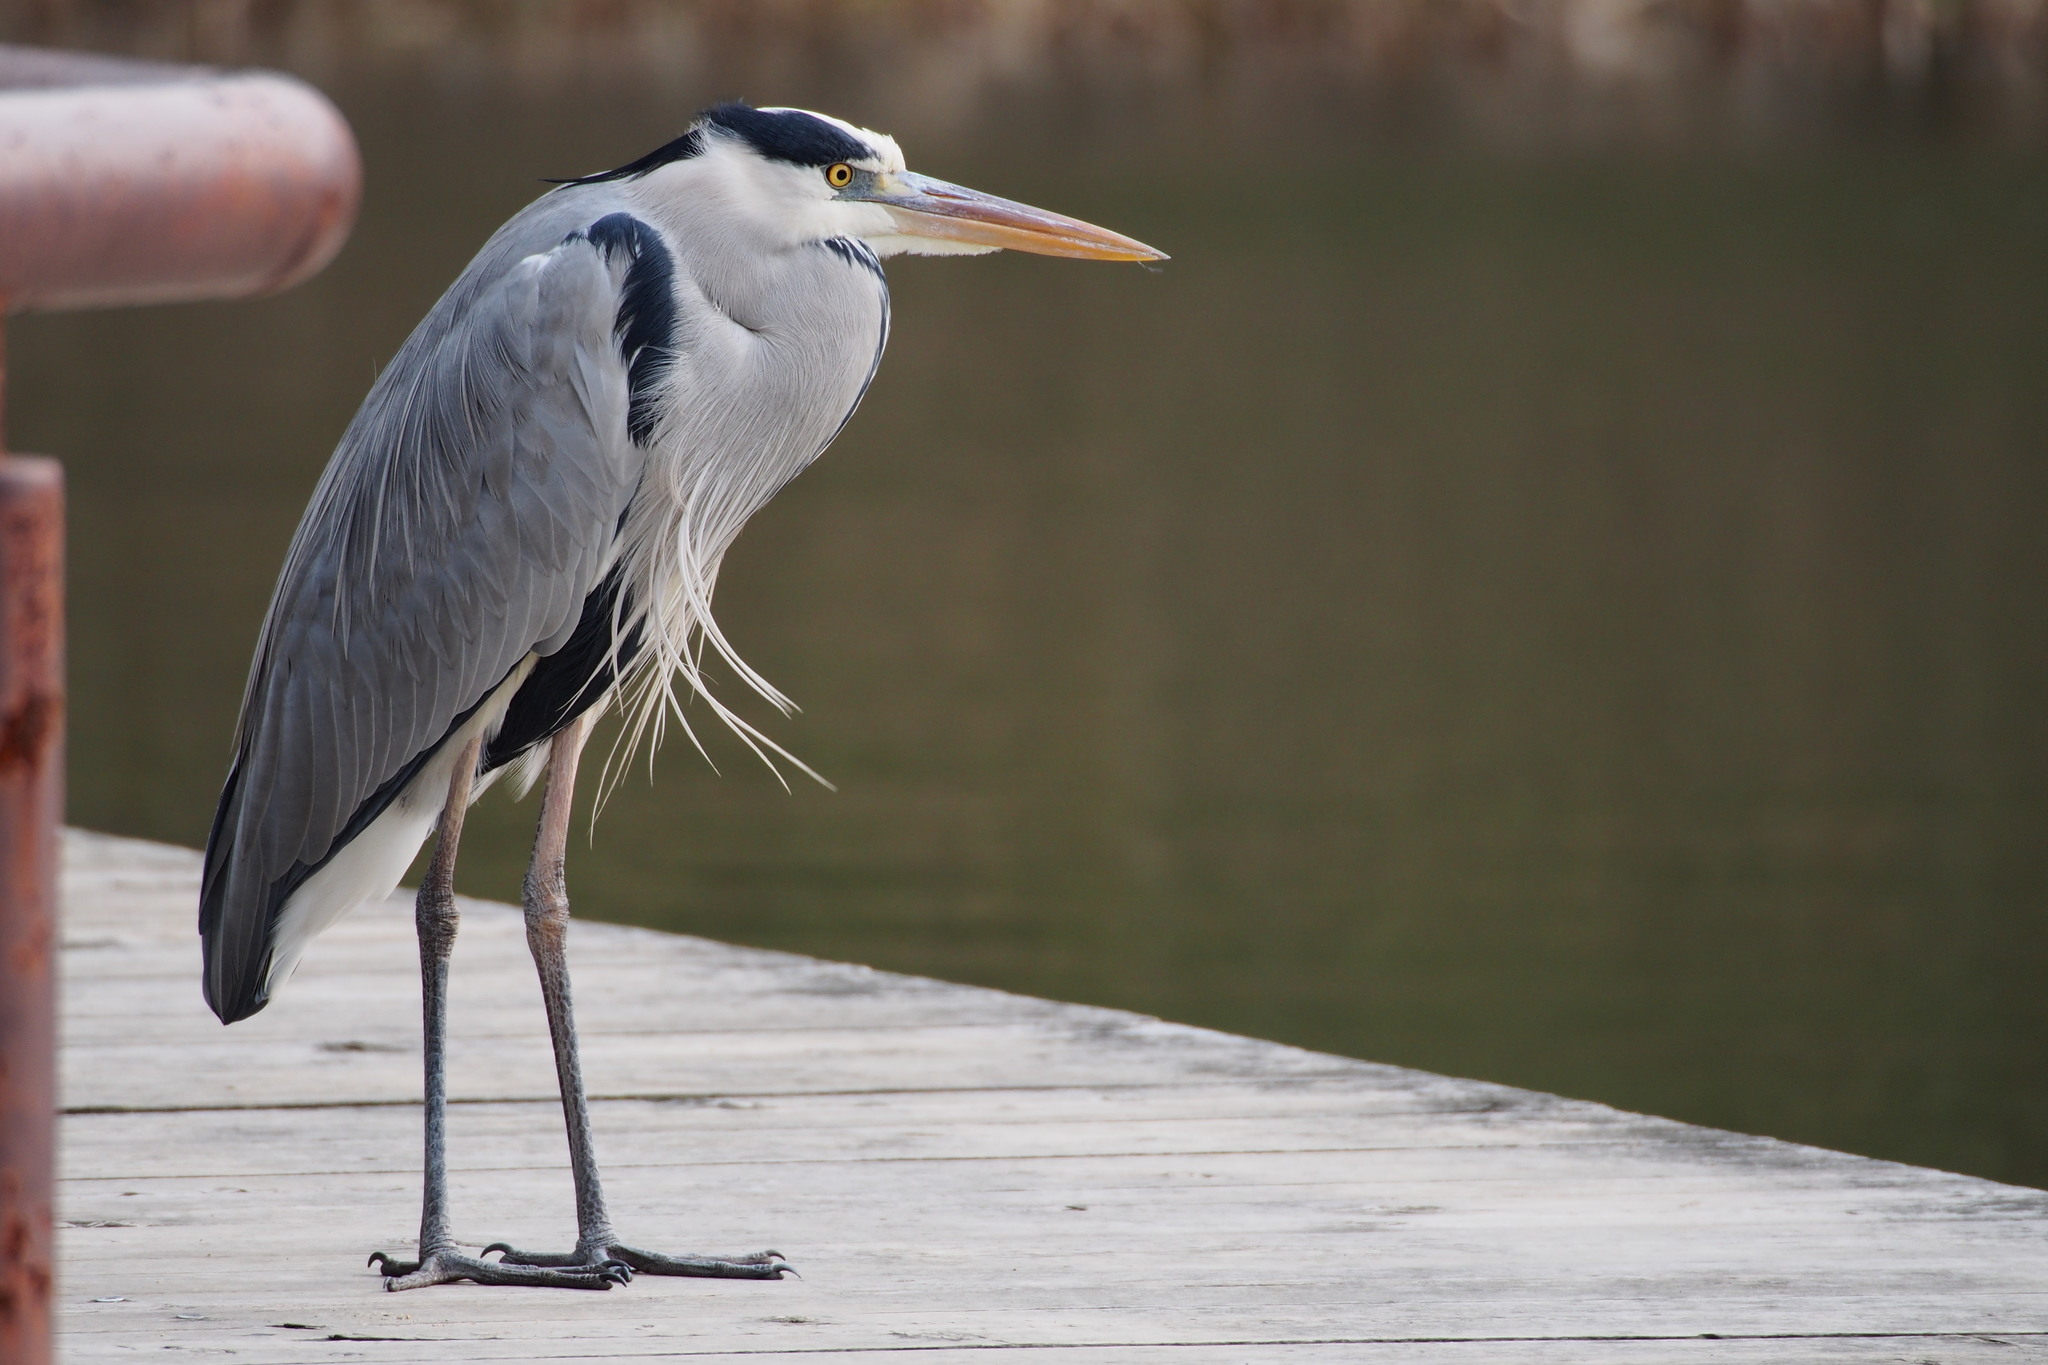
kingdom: Animalia
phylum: Chordata
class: Aves
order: Pelecaniformes
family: Ardeidae
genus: Ardea
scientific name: Ardea cinerea
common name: Grey heron
